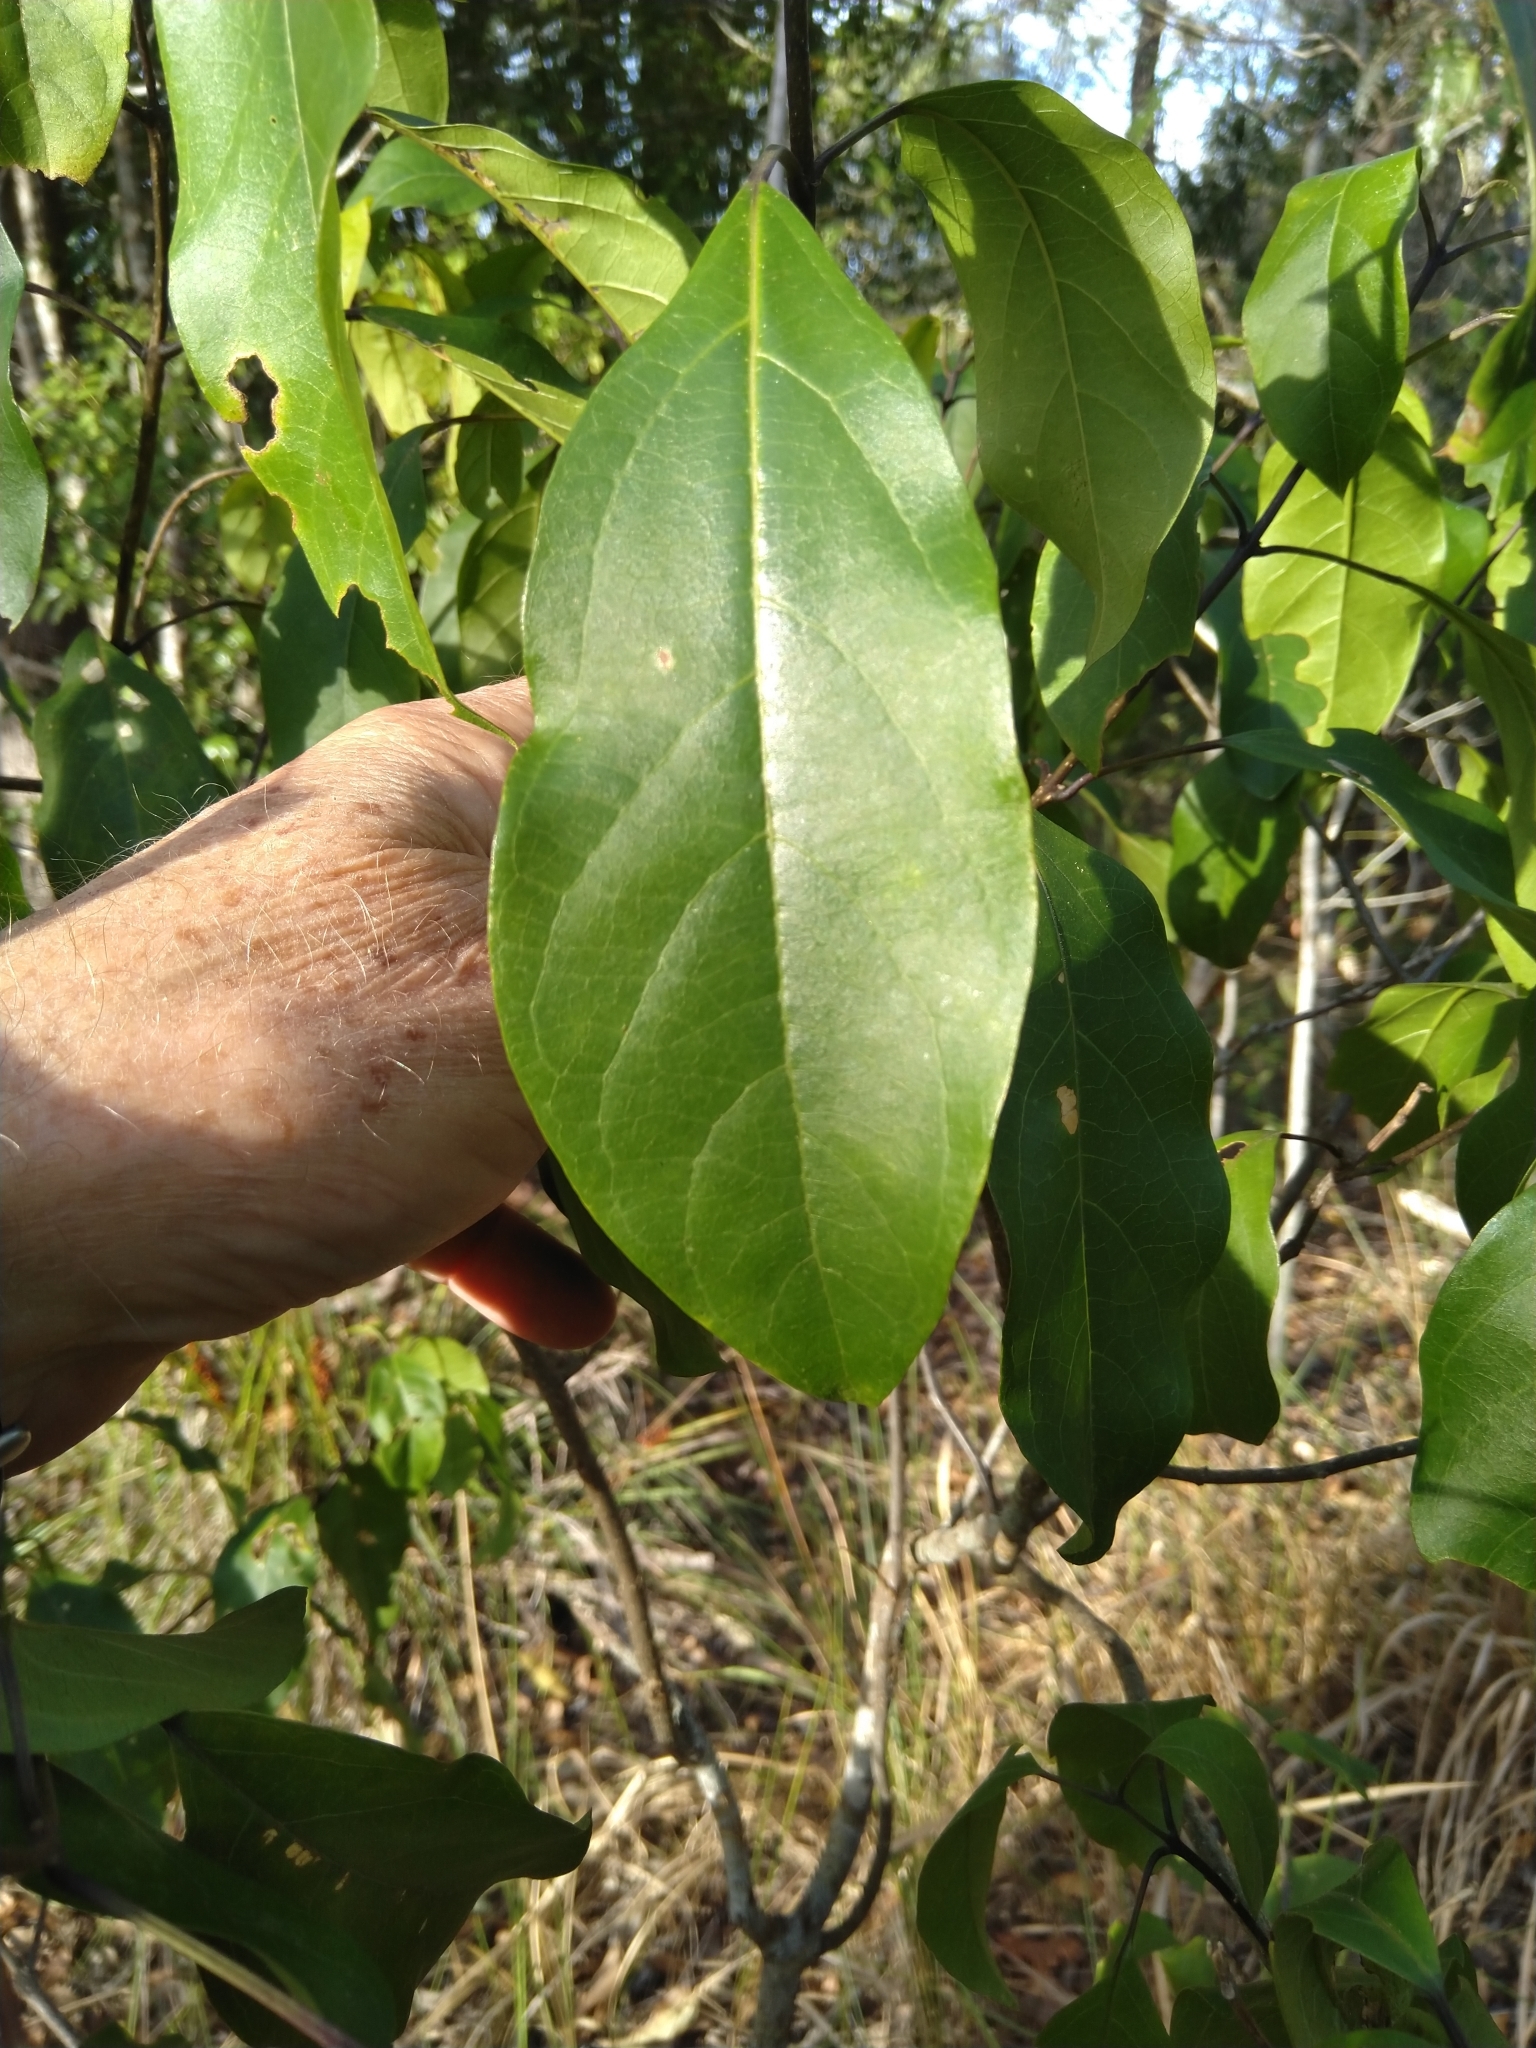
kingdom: Plantae
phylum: Tracheophyta
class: Magnoliopsida
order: Lamiales
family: Lamiaceae
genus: Clerodendrum
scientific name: Clerodendrum floribundum
